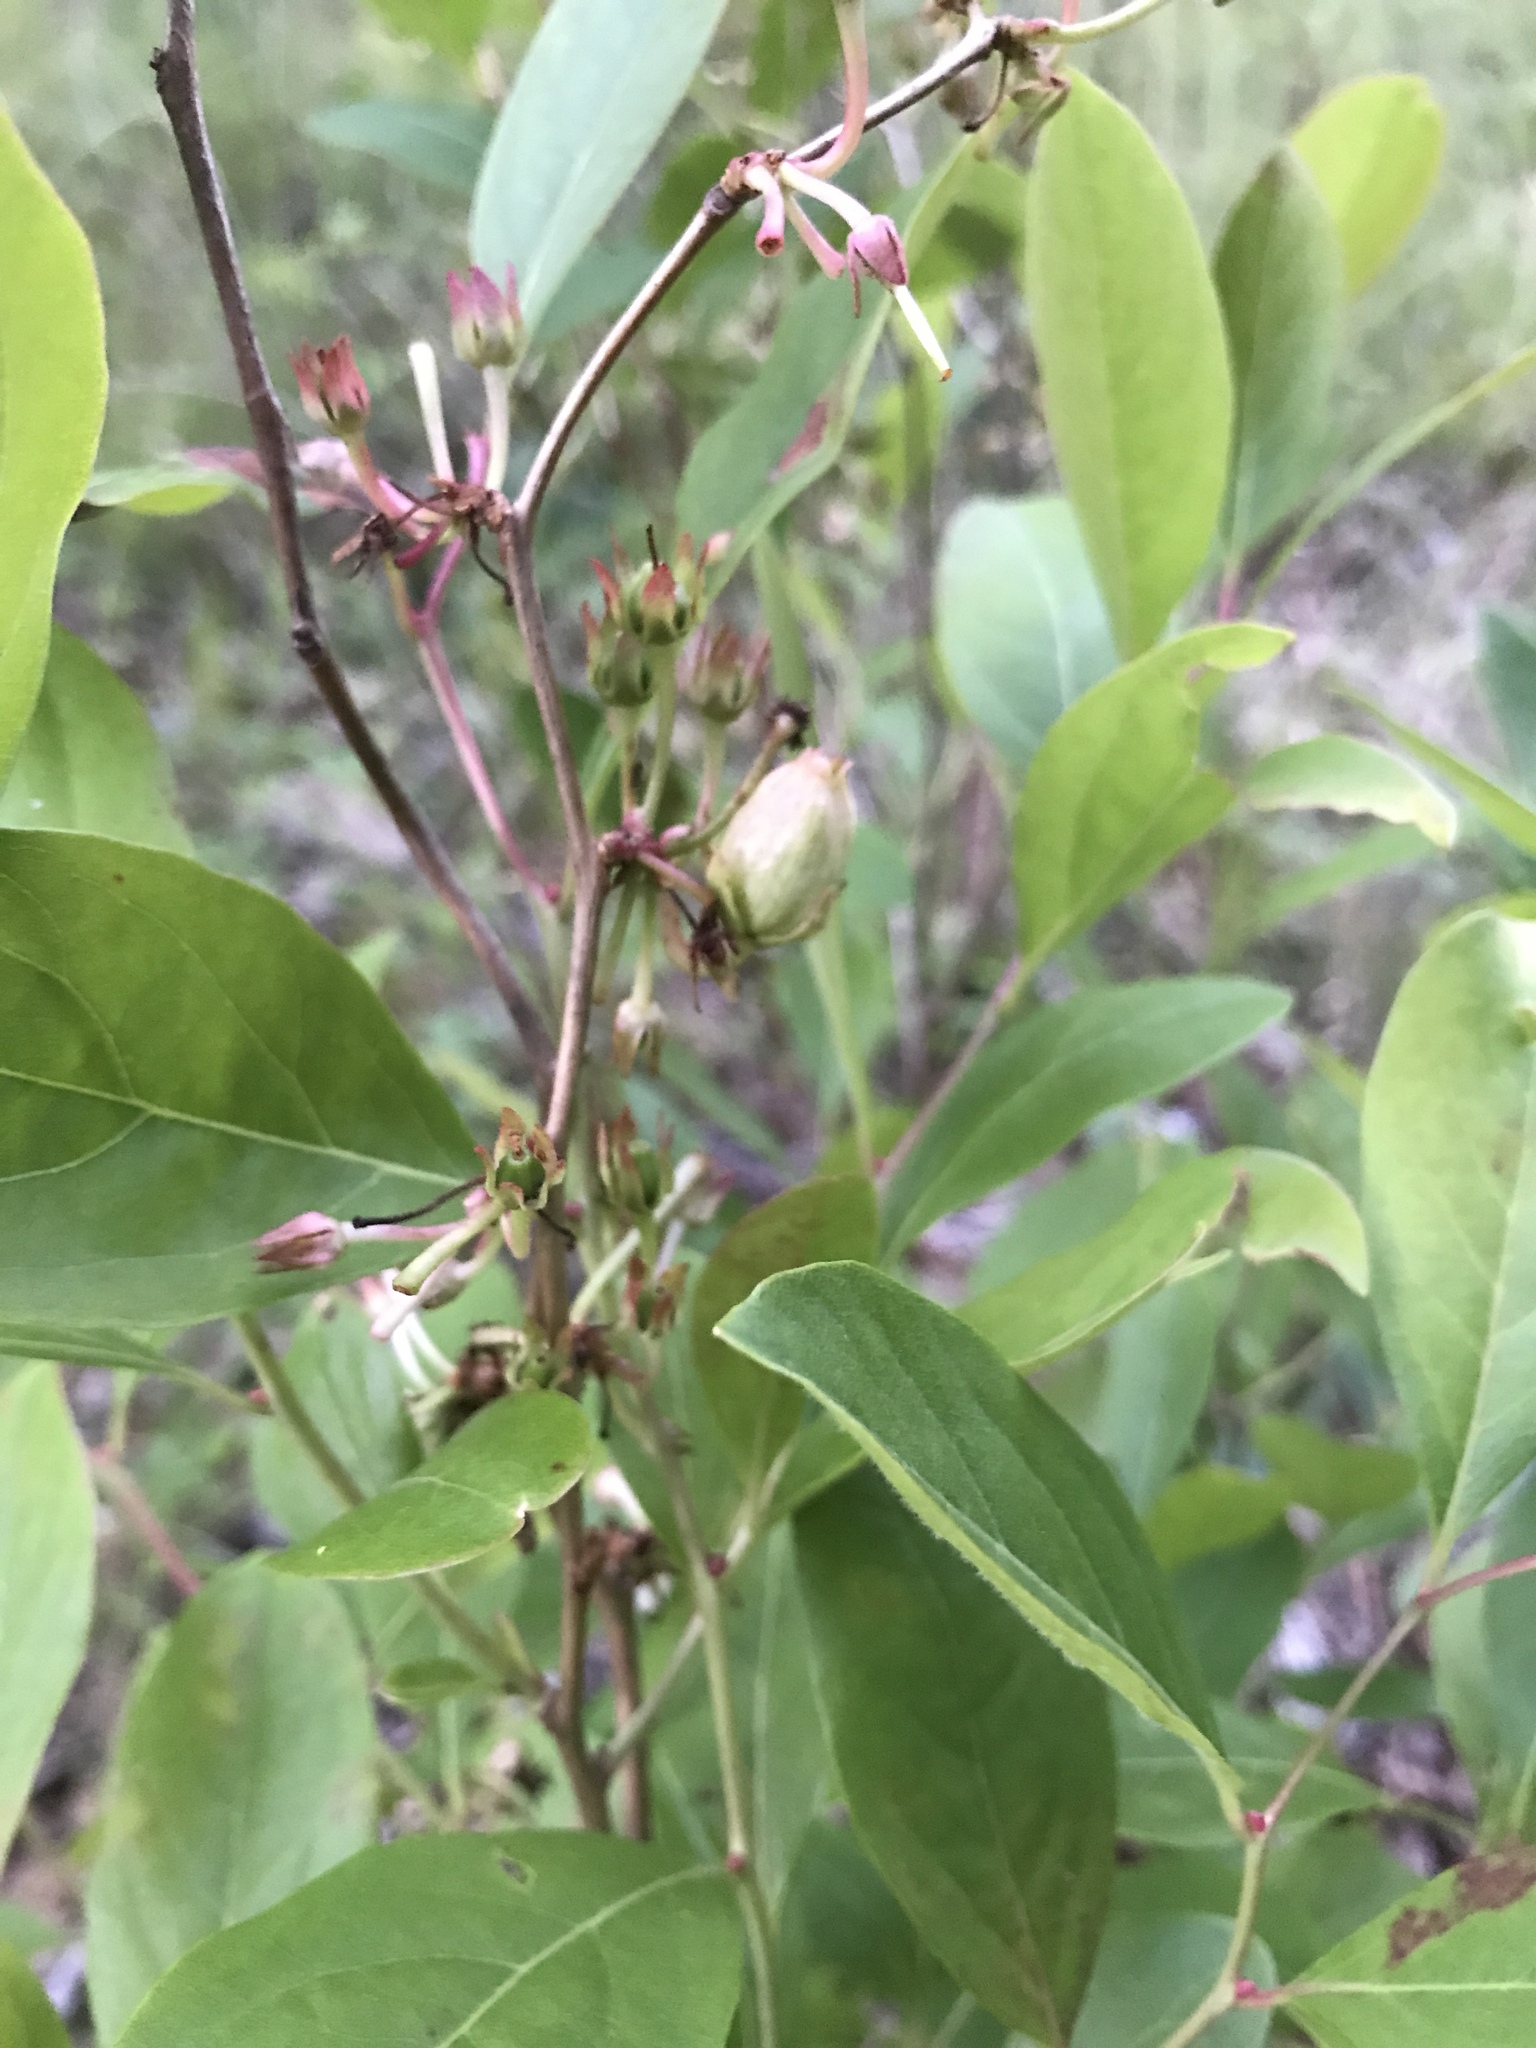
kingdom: Plantae
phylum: Tracheophyta
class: Magnoliopsida
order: Ericales
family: Ericaceae
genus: Lyonia
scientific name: Lyonia mariana
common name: Staggerbush
